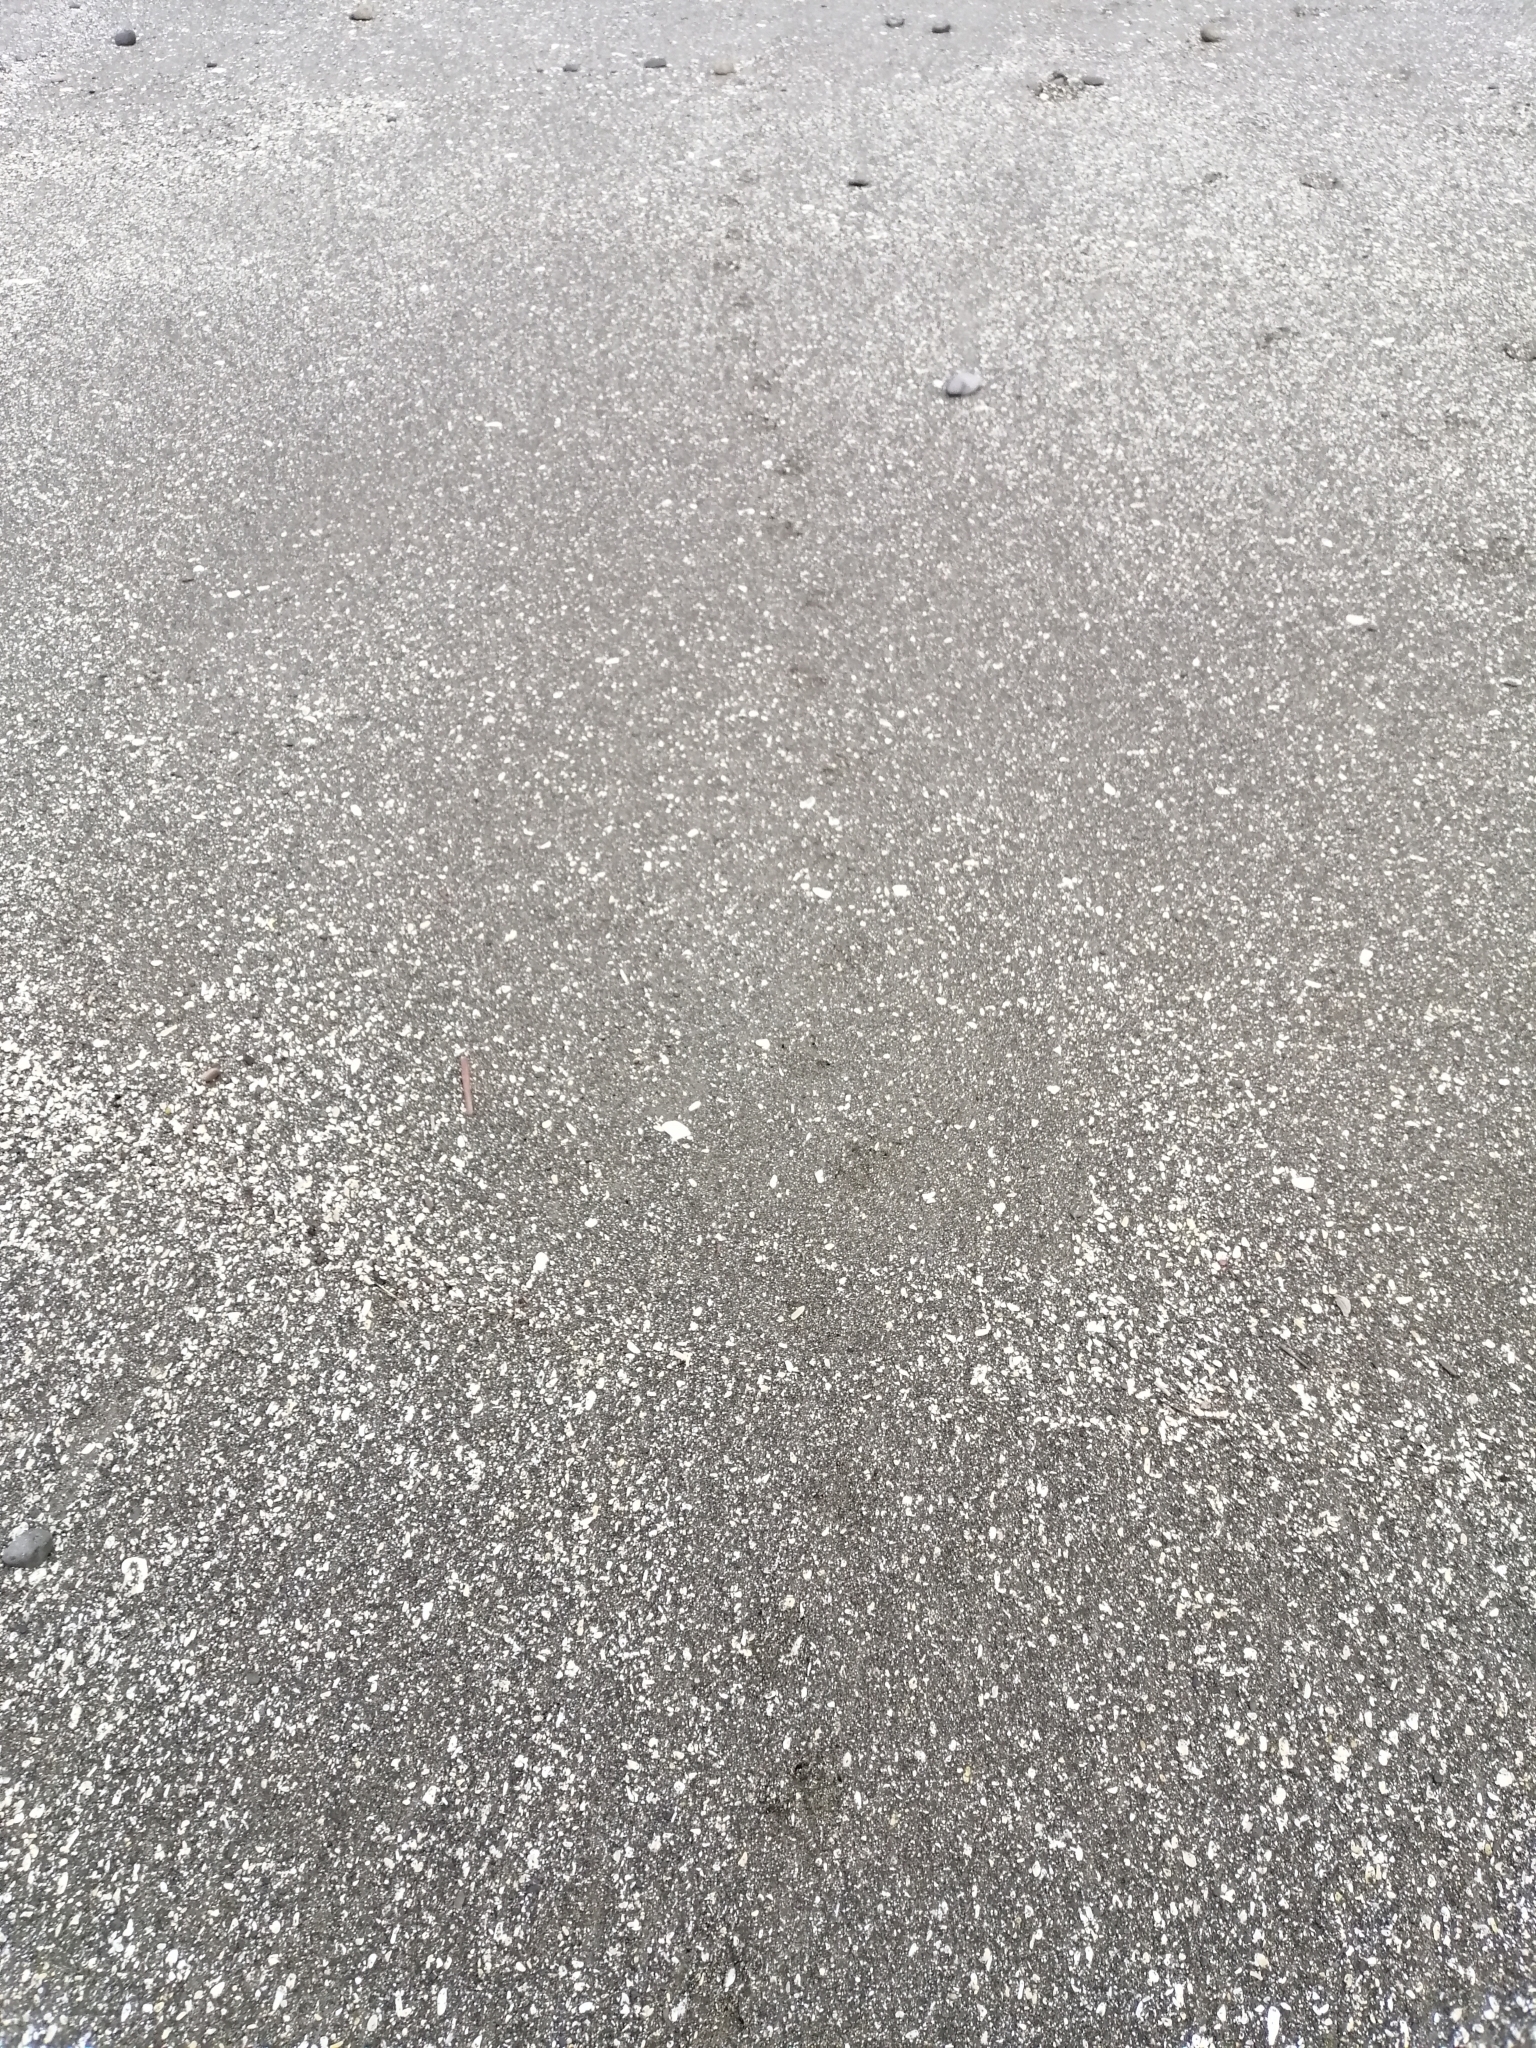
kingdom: Animalia
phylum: Chordata
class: Aves
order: Sphenisciformes
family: Spheniscidae
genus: Eudyptula
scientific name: Eudyptula minor
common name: Little penguin
